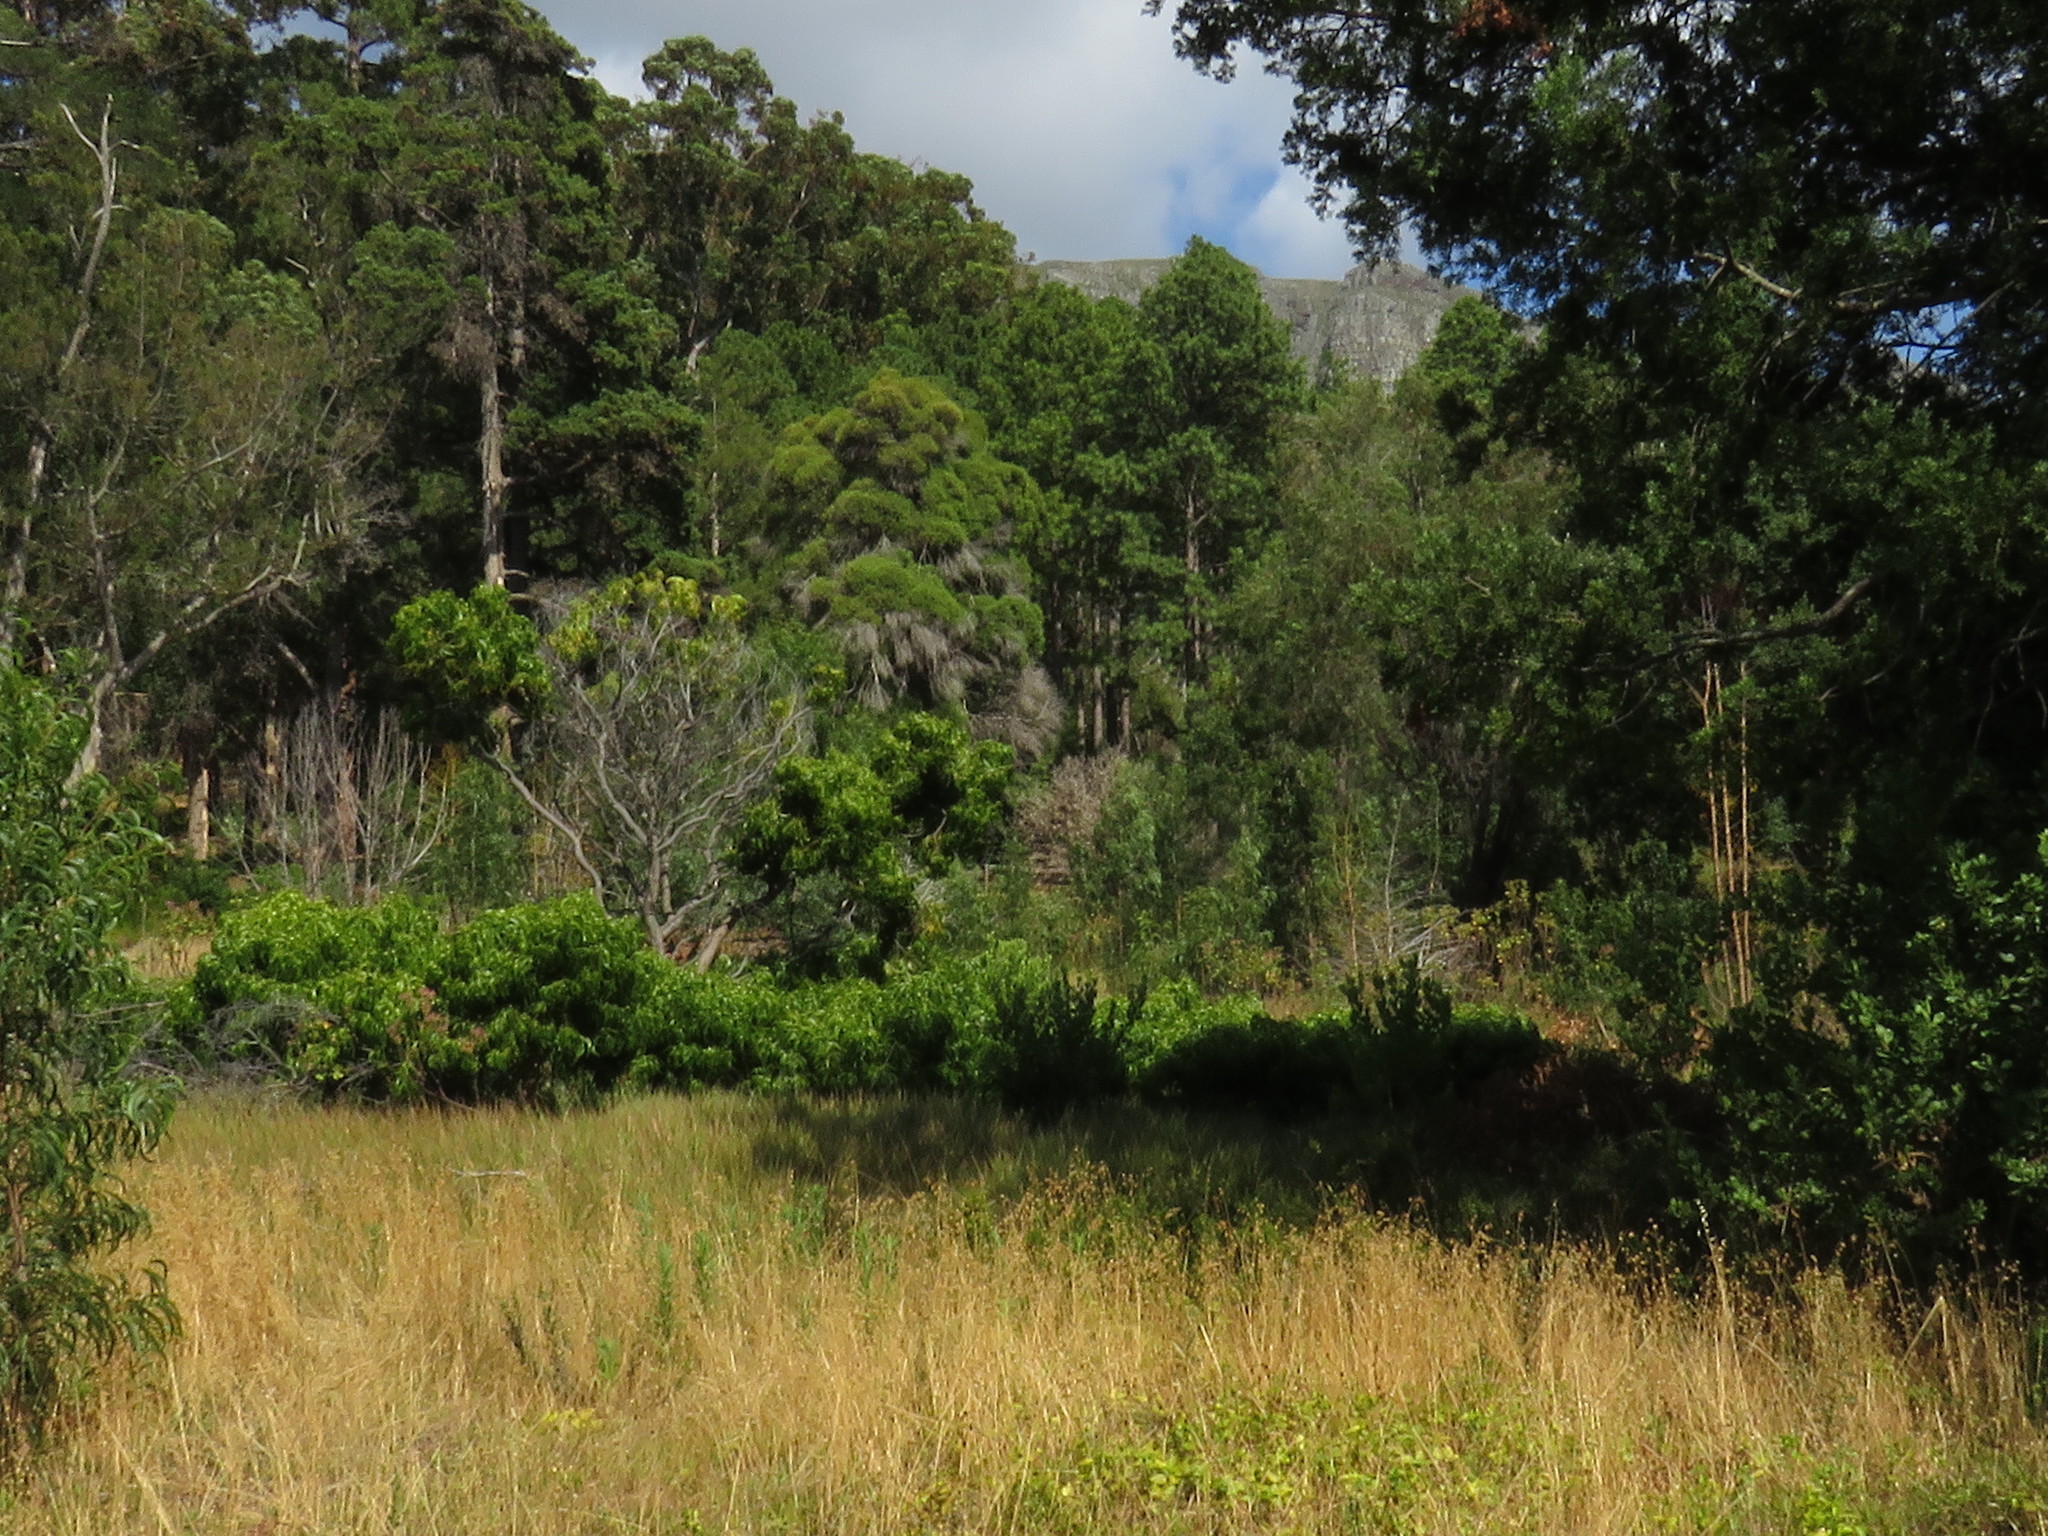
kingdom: Plantae
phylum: Tracheophyta
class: Magnoliopsida
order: Fabales
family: Fabaceae
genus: Acacia
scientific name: Acacia implexa
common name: Black wattle
